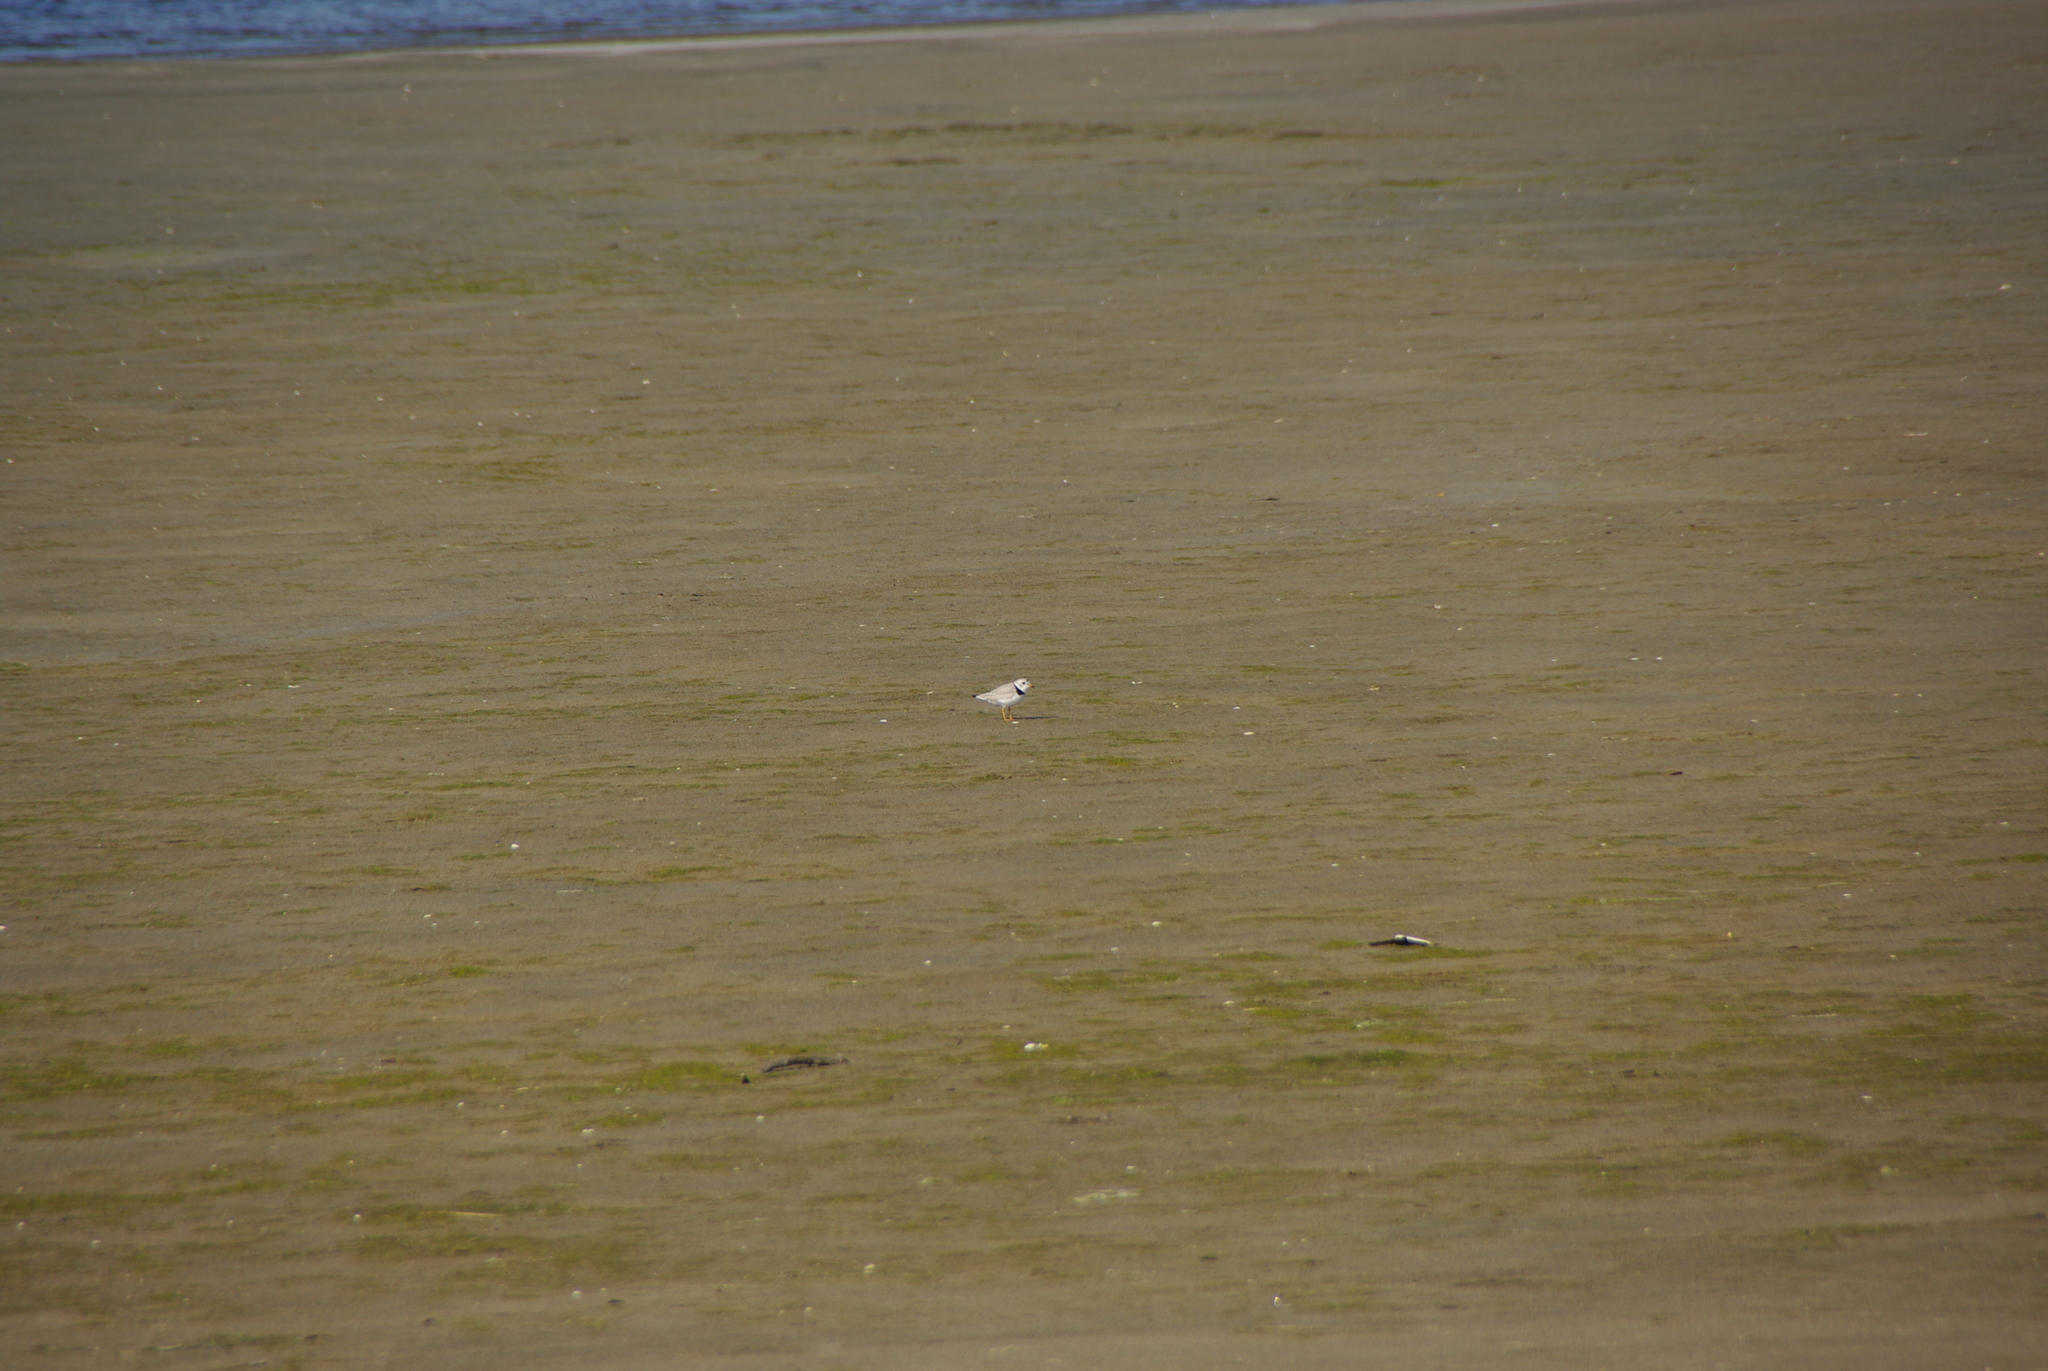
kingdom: Animalia
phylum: Chordata
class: Aves
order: Charadriiformes
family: Charadriidae
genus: Charadrius
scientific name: Charadrius melodus
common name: Piping plover
